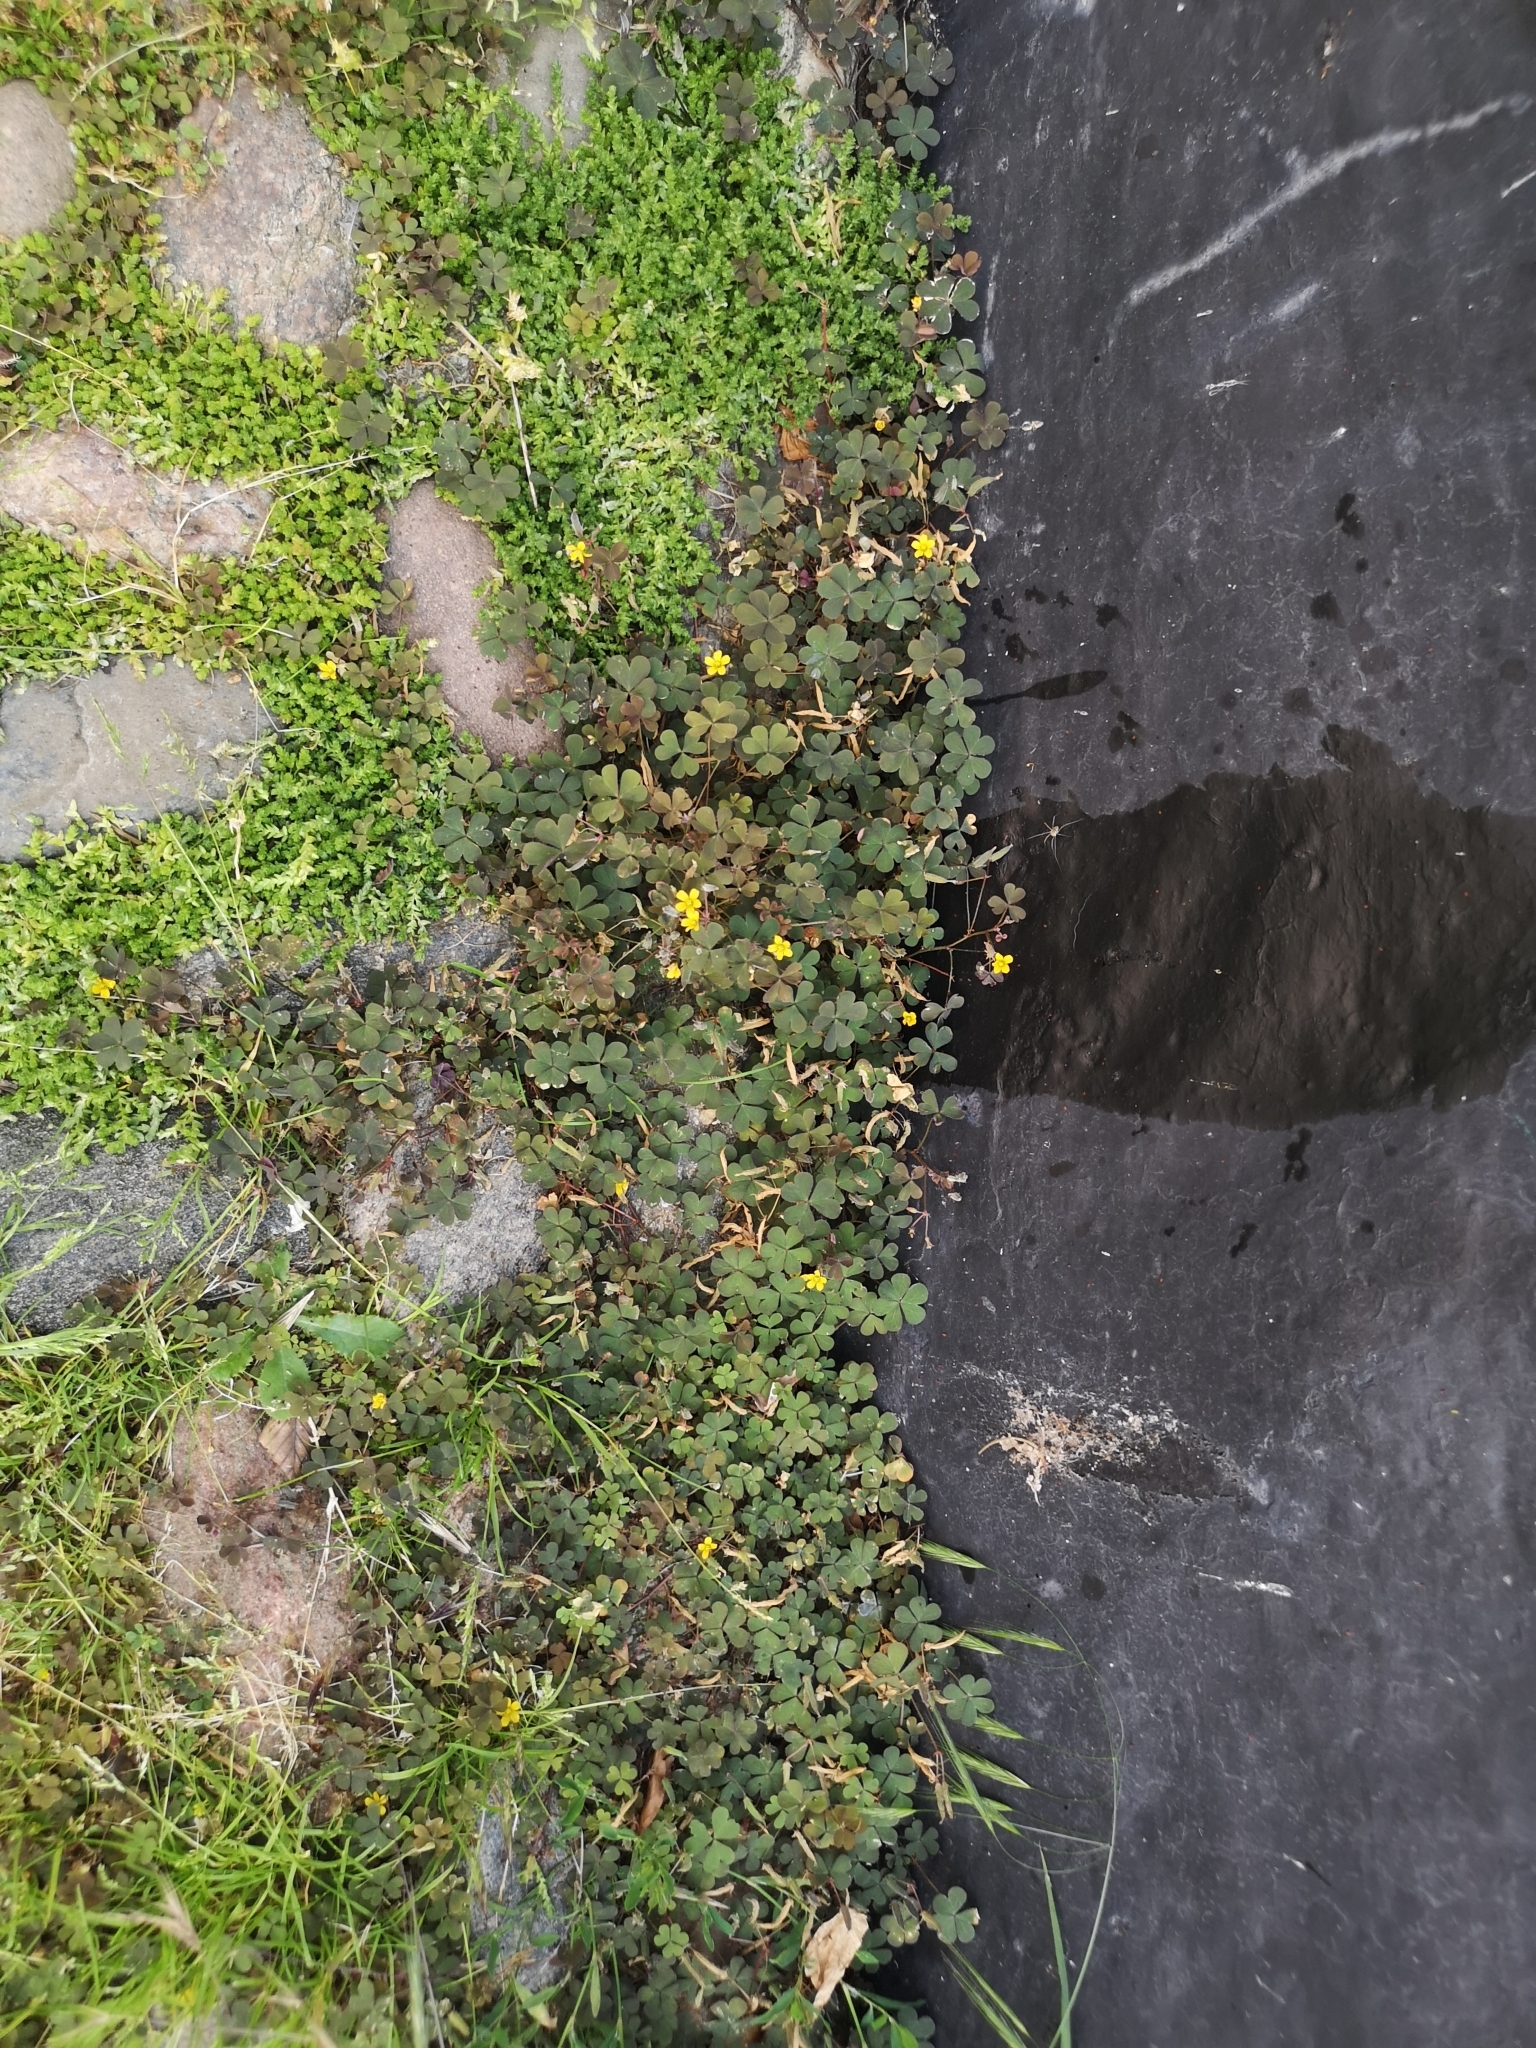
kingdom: Plantae
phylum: Tracheophyta
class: Magnoliopsida
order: Oxalidales
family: Oxalidaceae
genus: Oxalis
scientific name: Oxalis corniculata
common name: Procumbent yellow-sorrel
